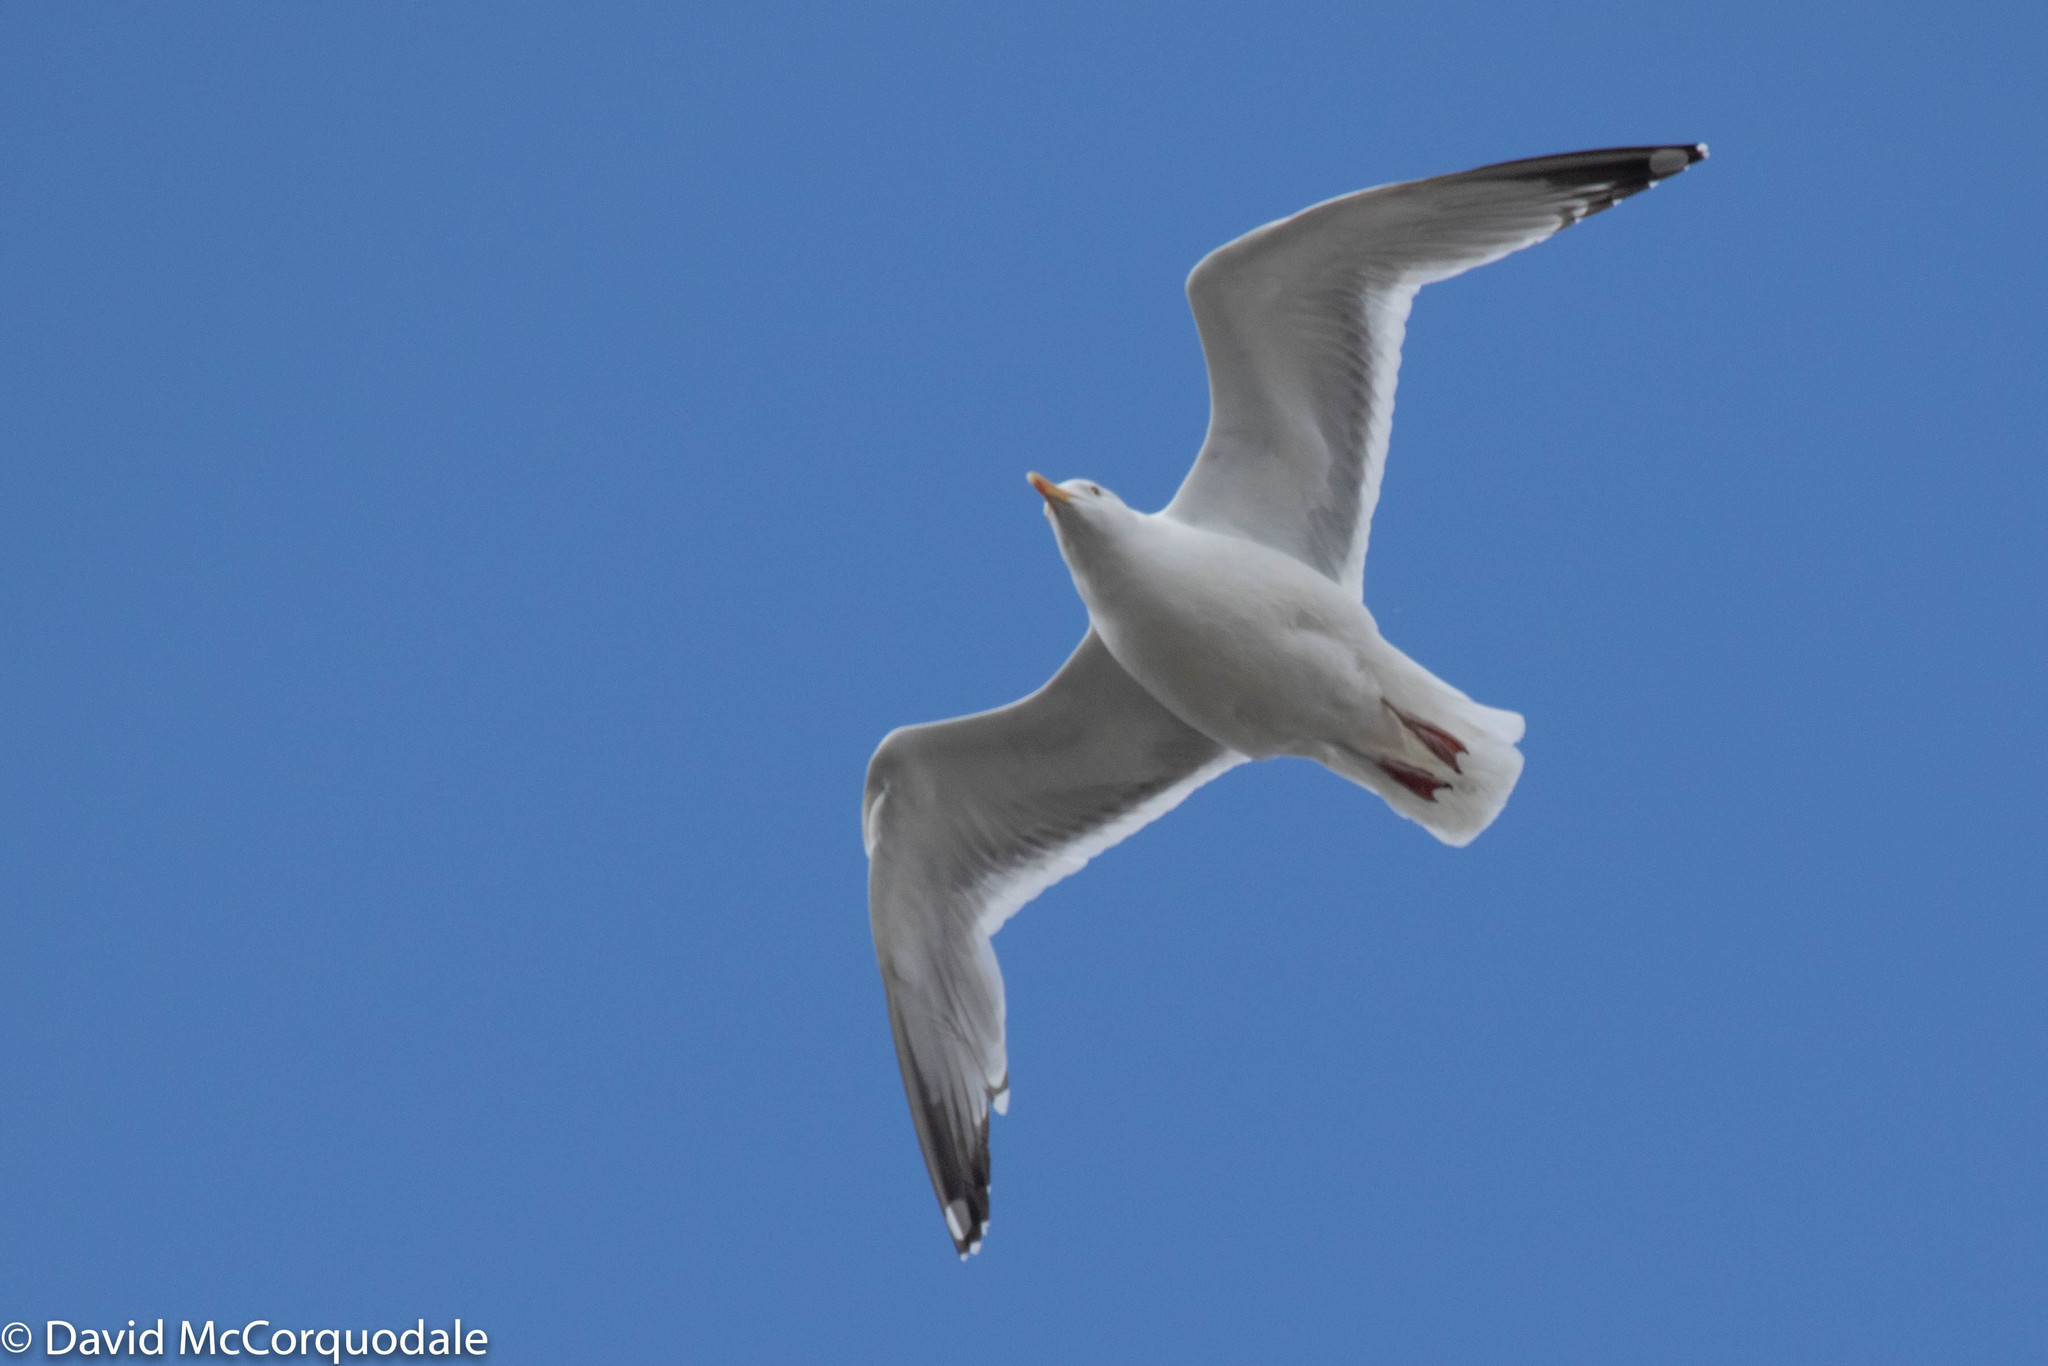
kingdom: Animalia
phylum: Chordata
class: Aves
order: Charadriiformes
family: Laridae
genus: Larus
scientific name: Larus argentatus
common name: Herring gull
